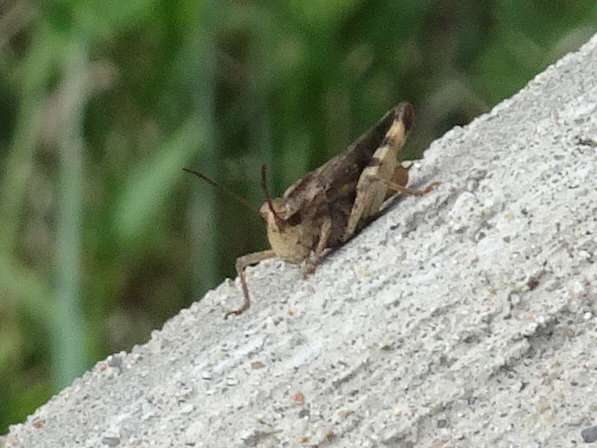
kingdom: Animalia
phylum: Arthropoda
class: Insecta
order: Orthoptera
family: Acrididae
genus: Chortophaga
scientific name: Chortophaga viridifasciata
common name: Green-striped grasshopper
